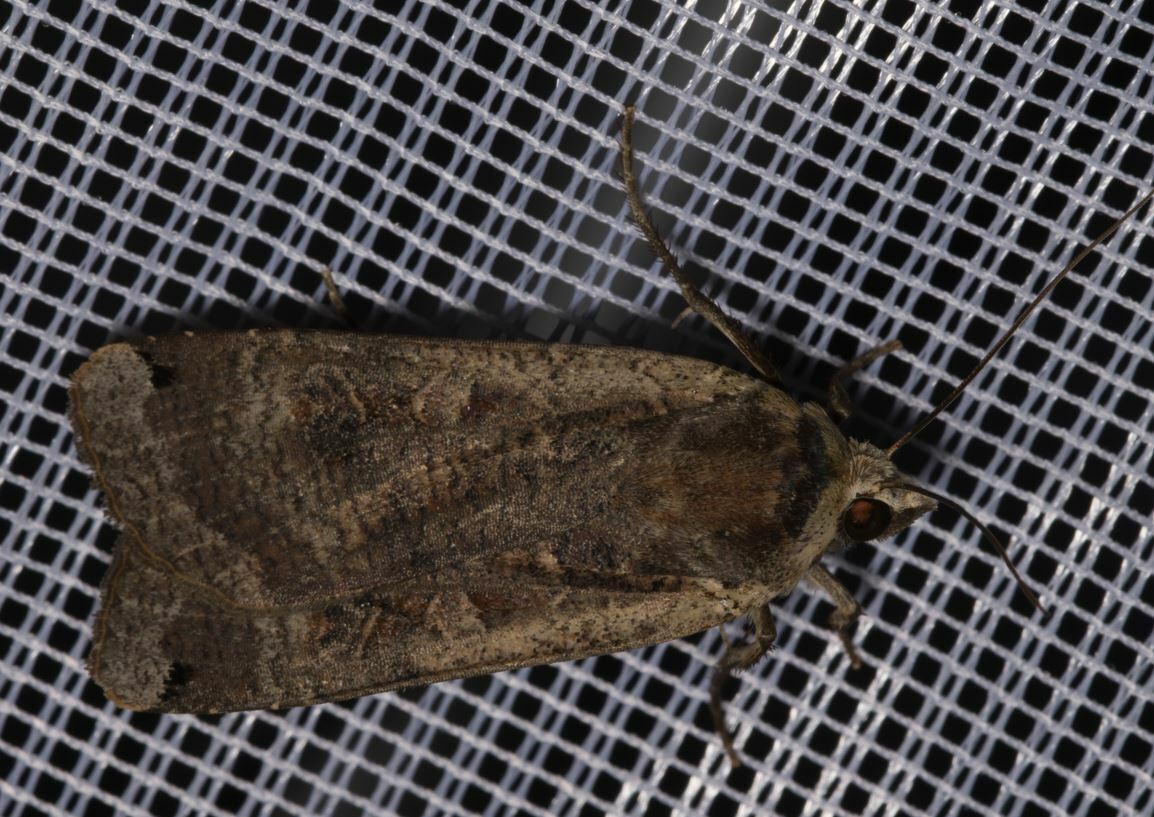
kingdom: Animalia
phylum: Arthropoda
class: Insecta
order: Lepidoptera
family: Noctuidae
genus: Noctua
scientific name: Noctua pronuba
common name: Large yellow underwing
